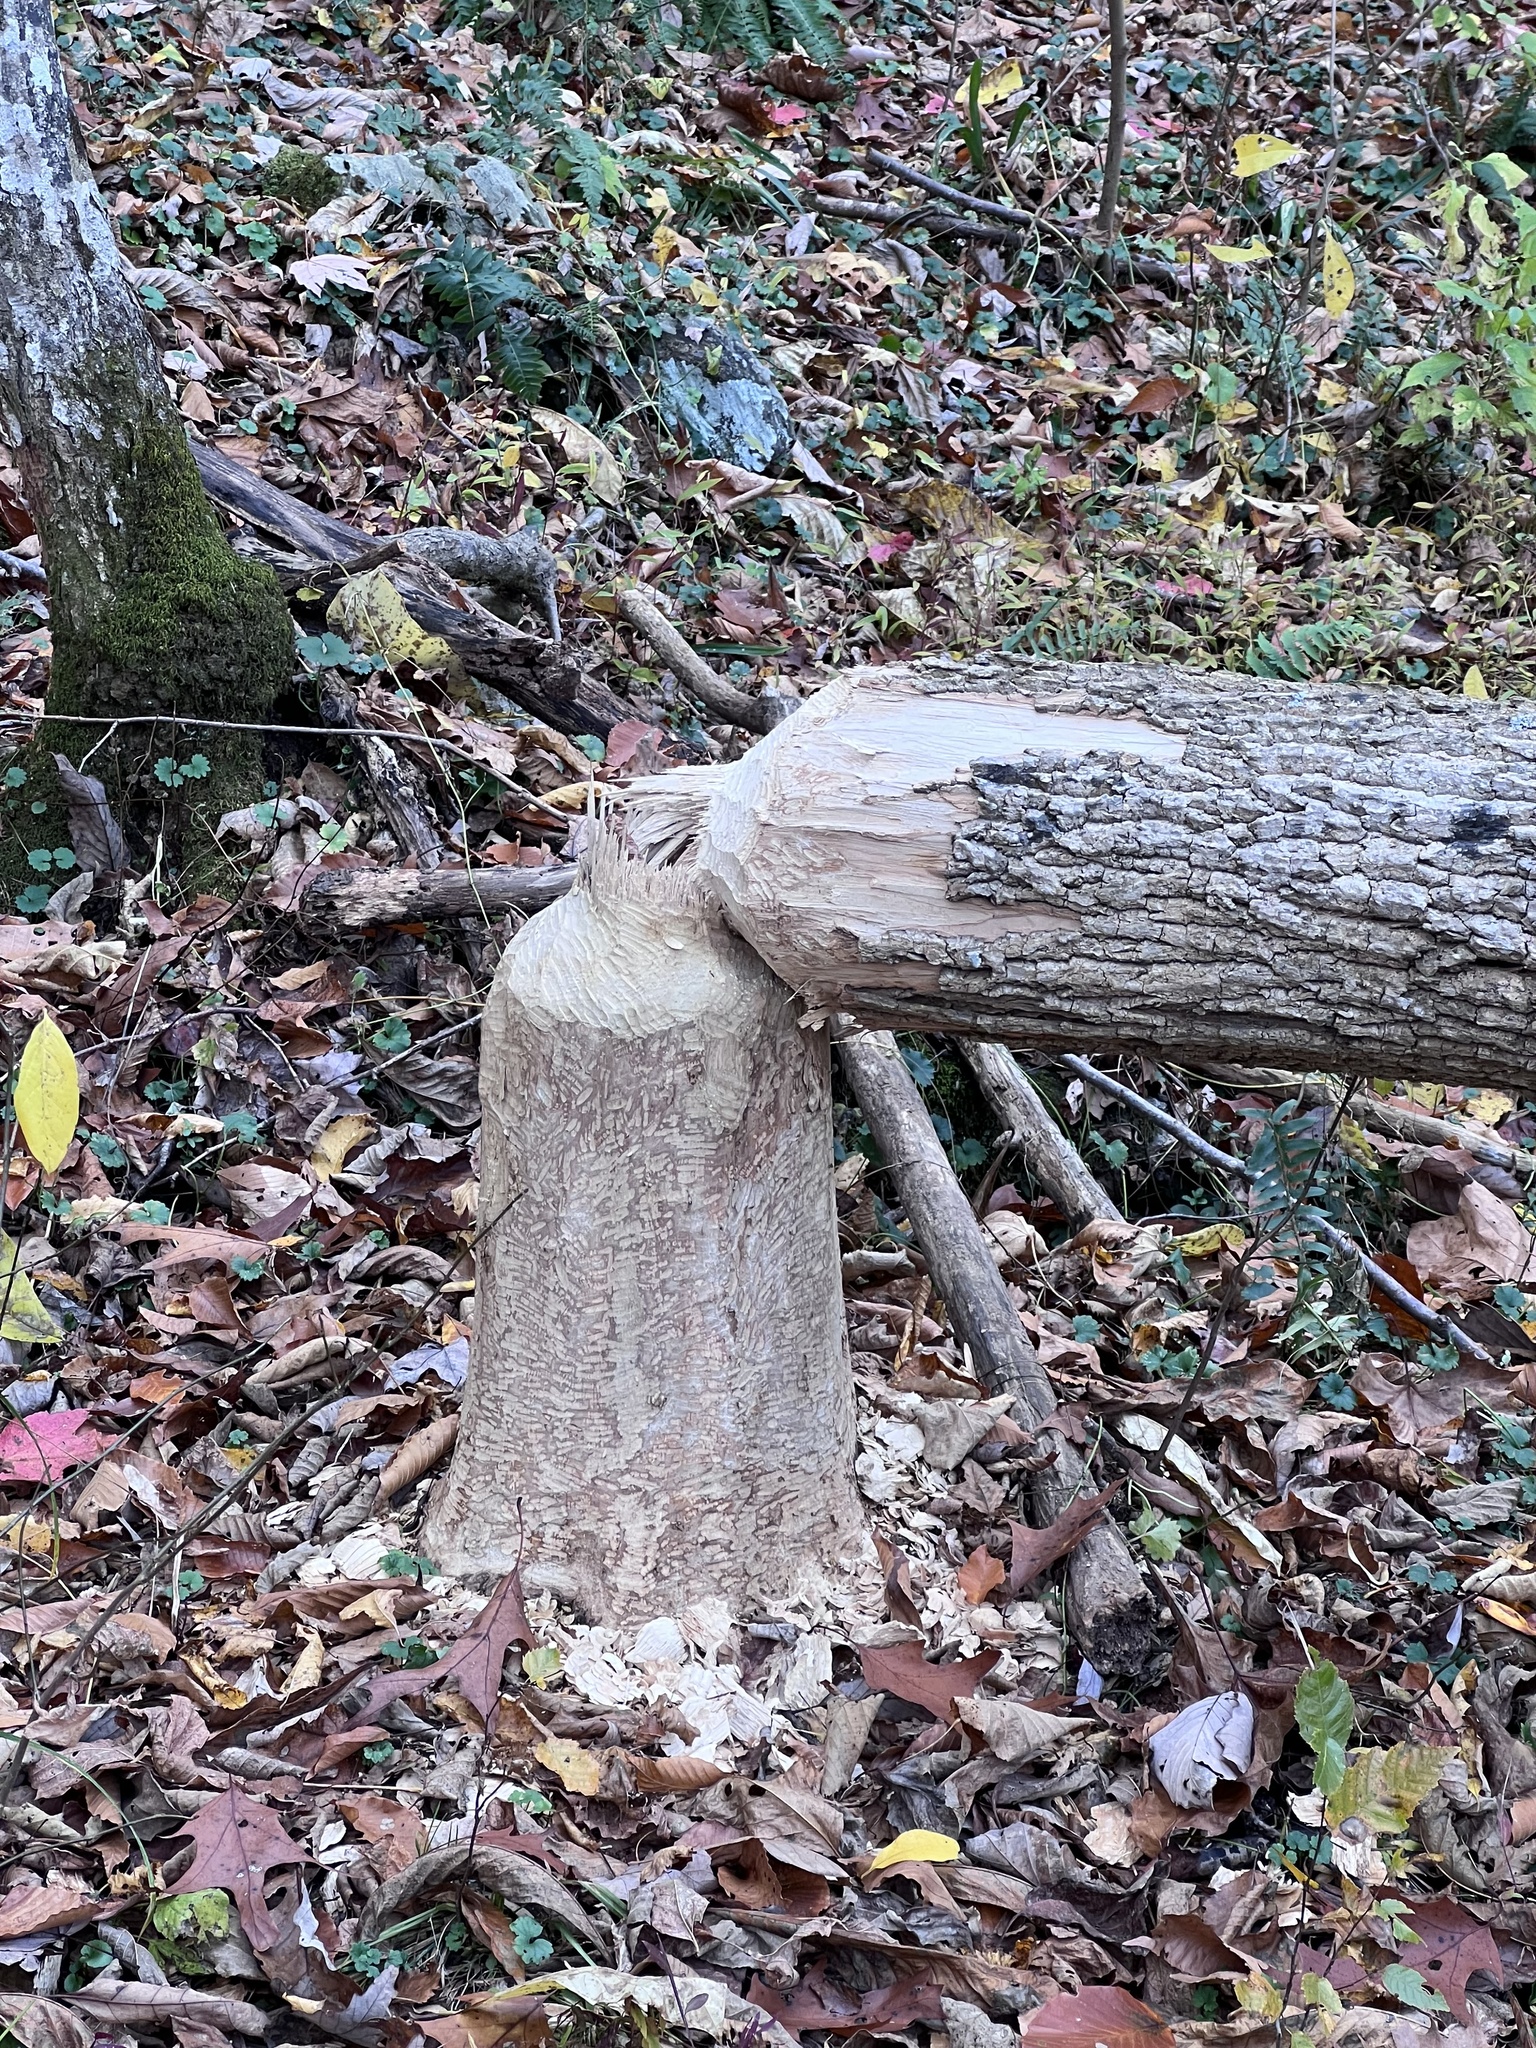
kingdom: Animalia
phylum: Chordata
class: Mammalia
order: Rodentia
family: Castoridae
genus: Castor
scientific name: Castor canadensis
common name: American beaver
